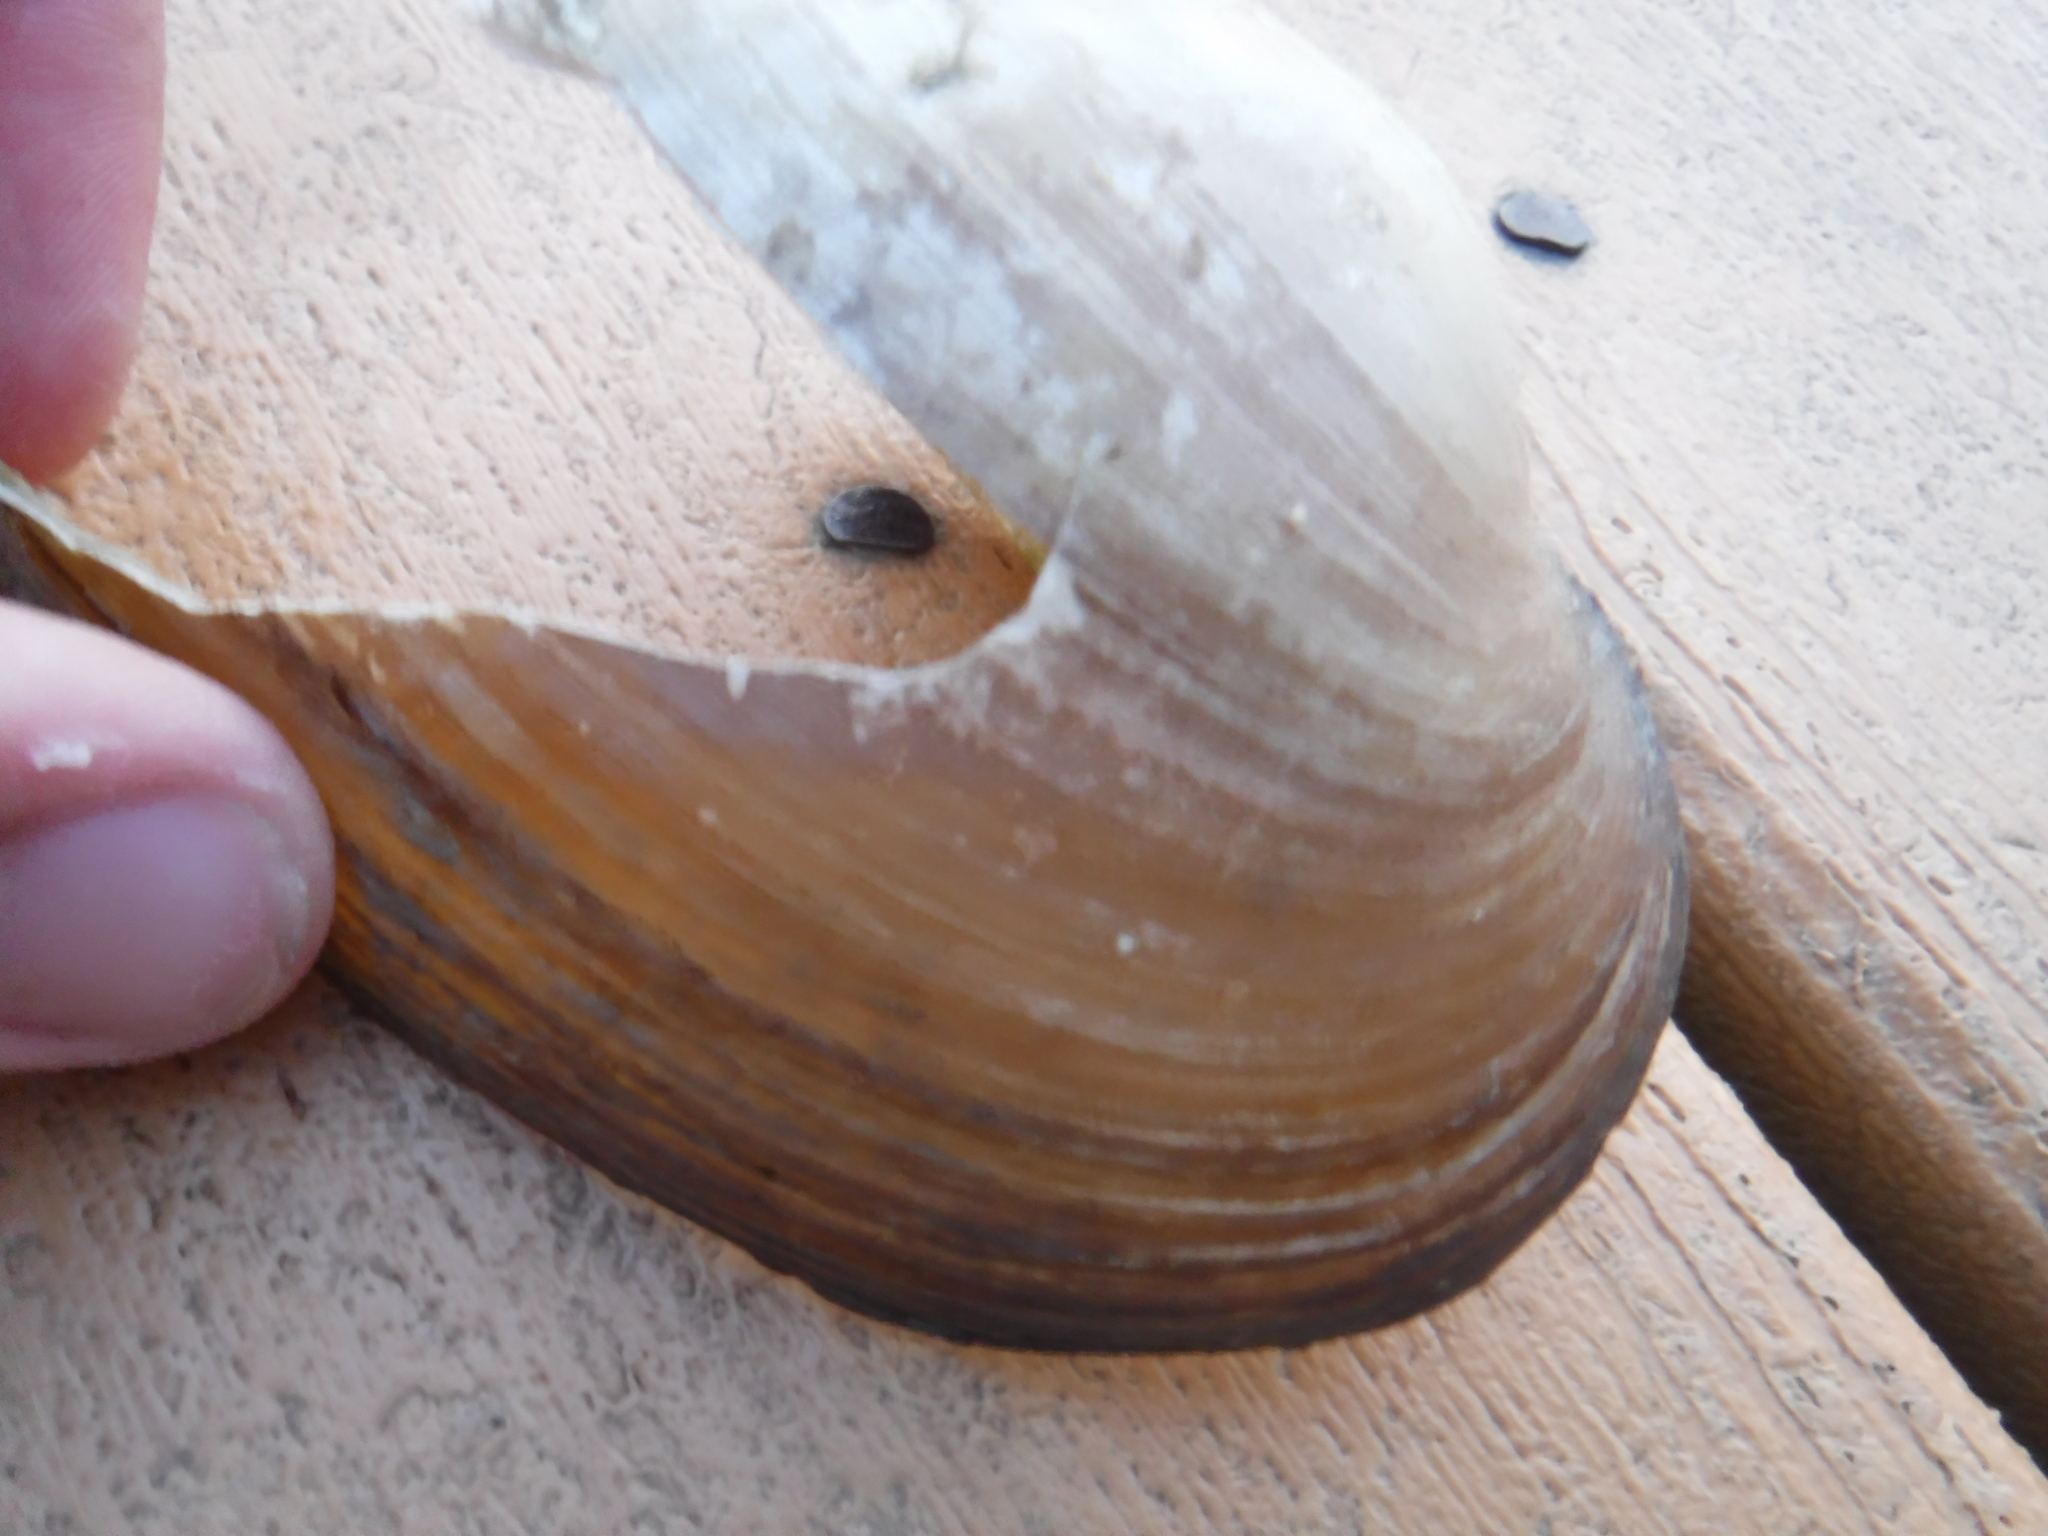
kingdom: Animalia
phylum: Mollusca
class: Bivalvia
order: Unionida
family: Unionidae
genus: Lampsilis
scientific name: Lampsilis siliquoidea
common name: Fatmucket
